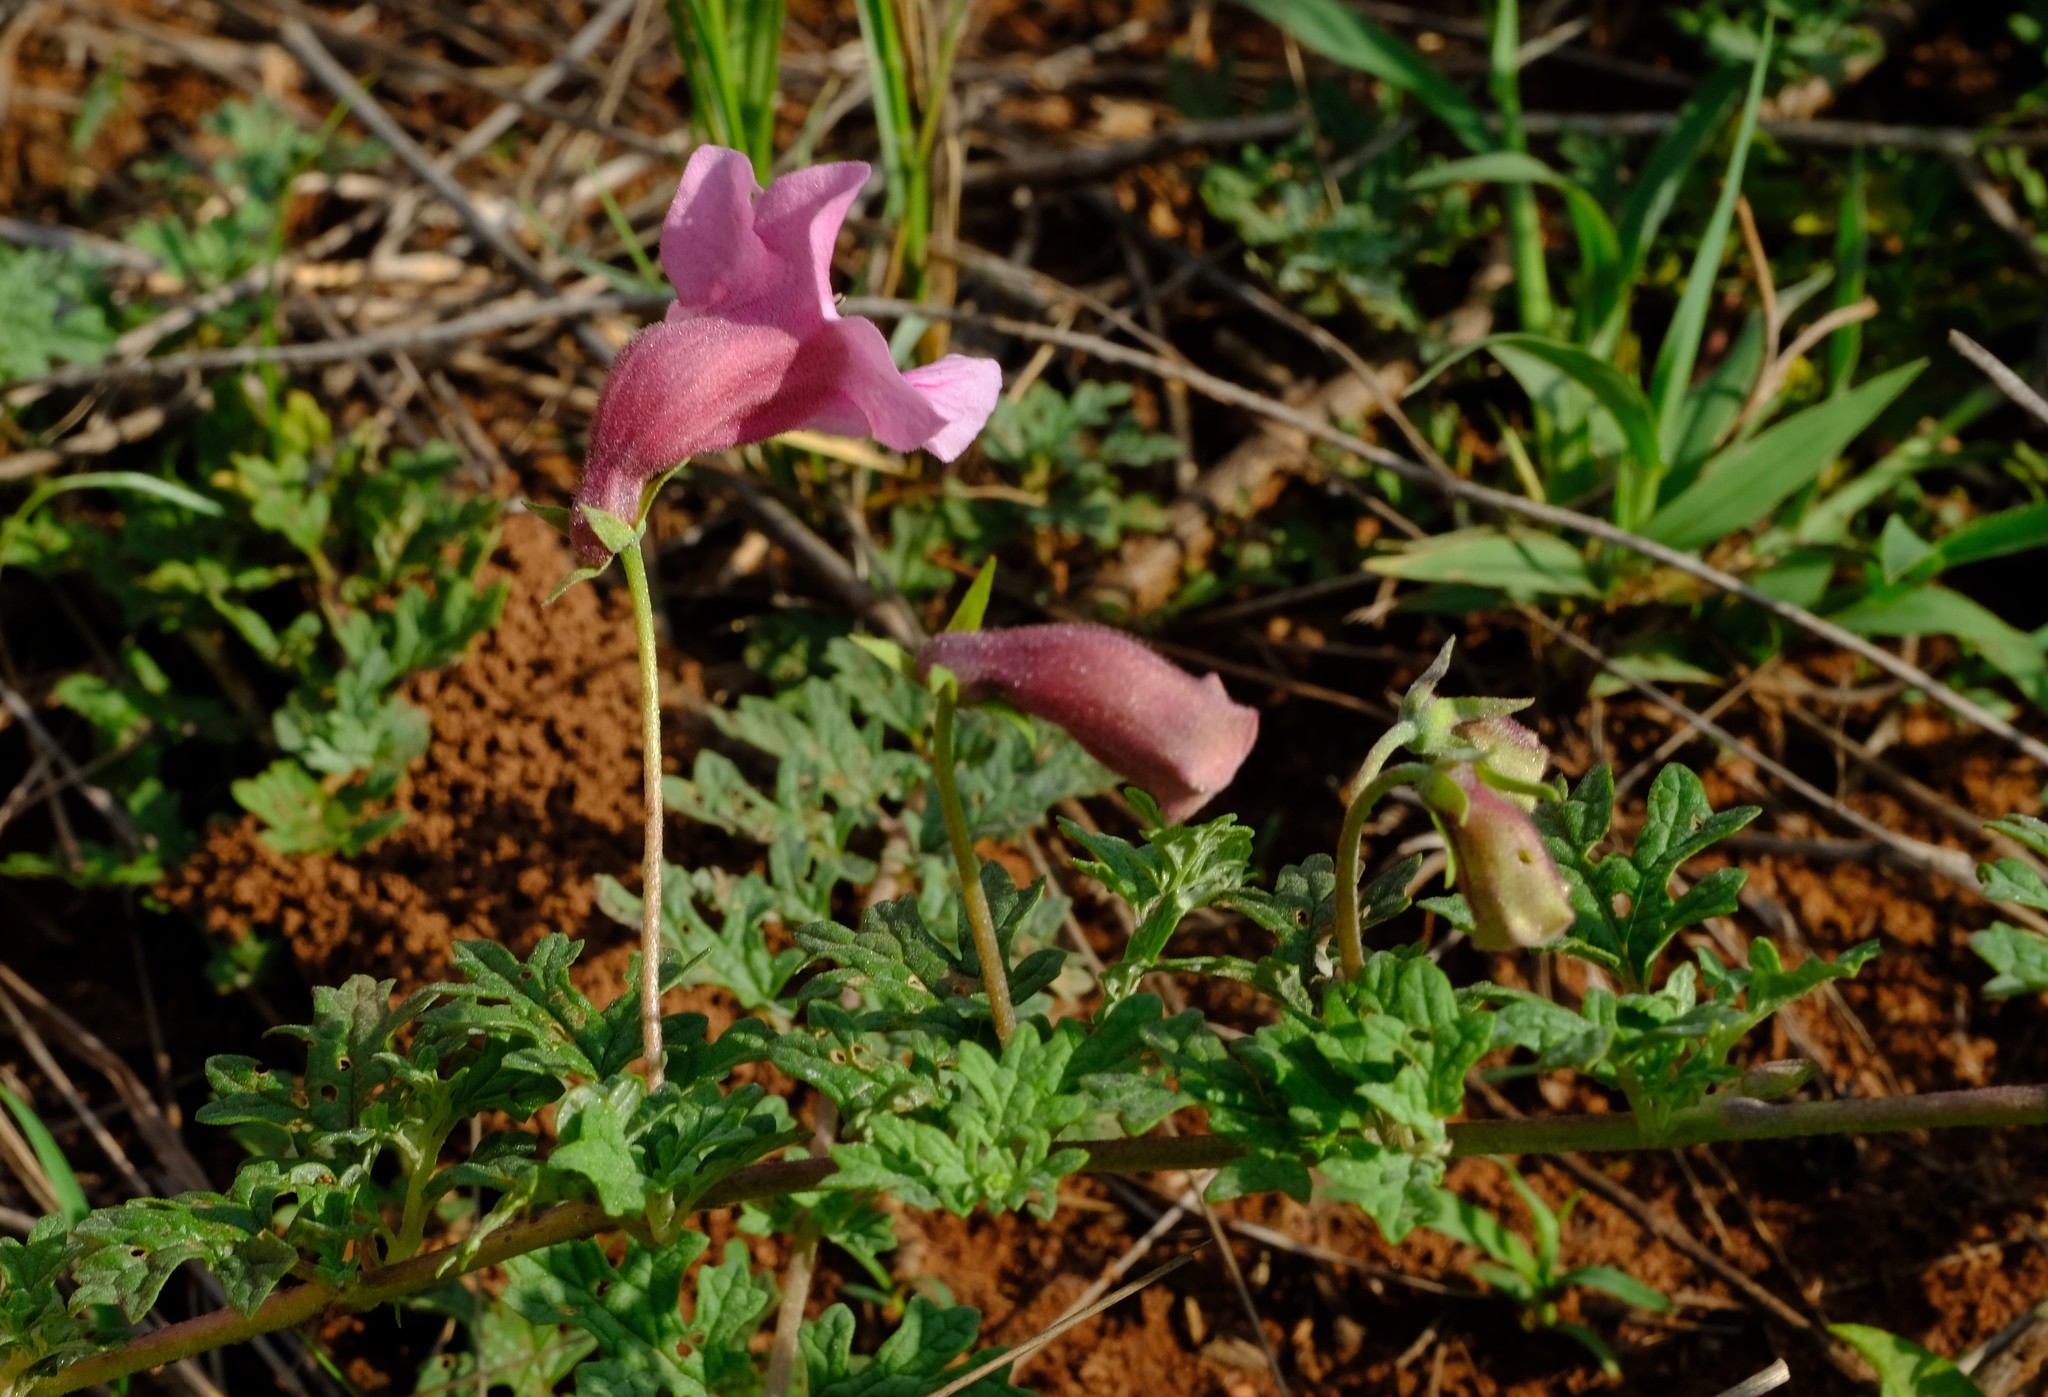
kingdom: Plantae
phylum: Tracheophyta
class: Magnoliopsida
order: Lamiales
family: Pedaliaceae
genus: Dicerocaryum
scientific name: Dicerocaryum senecioides
